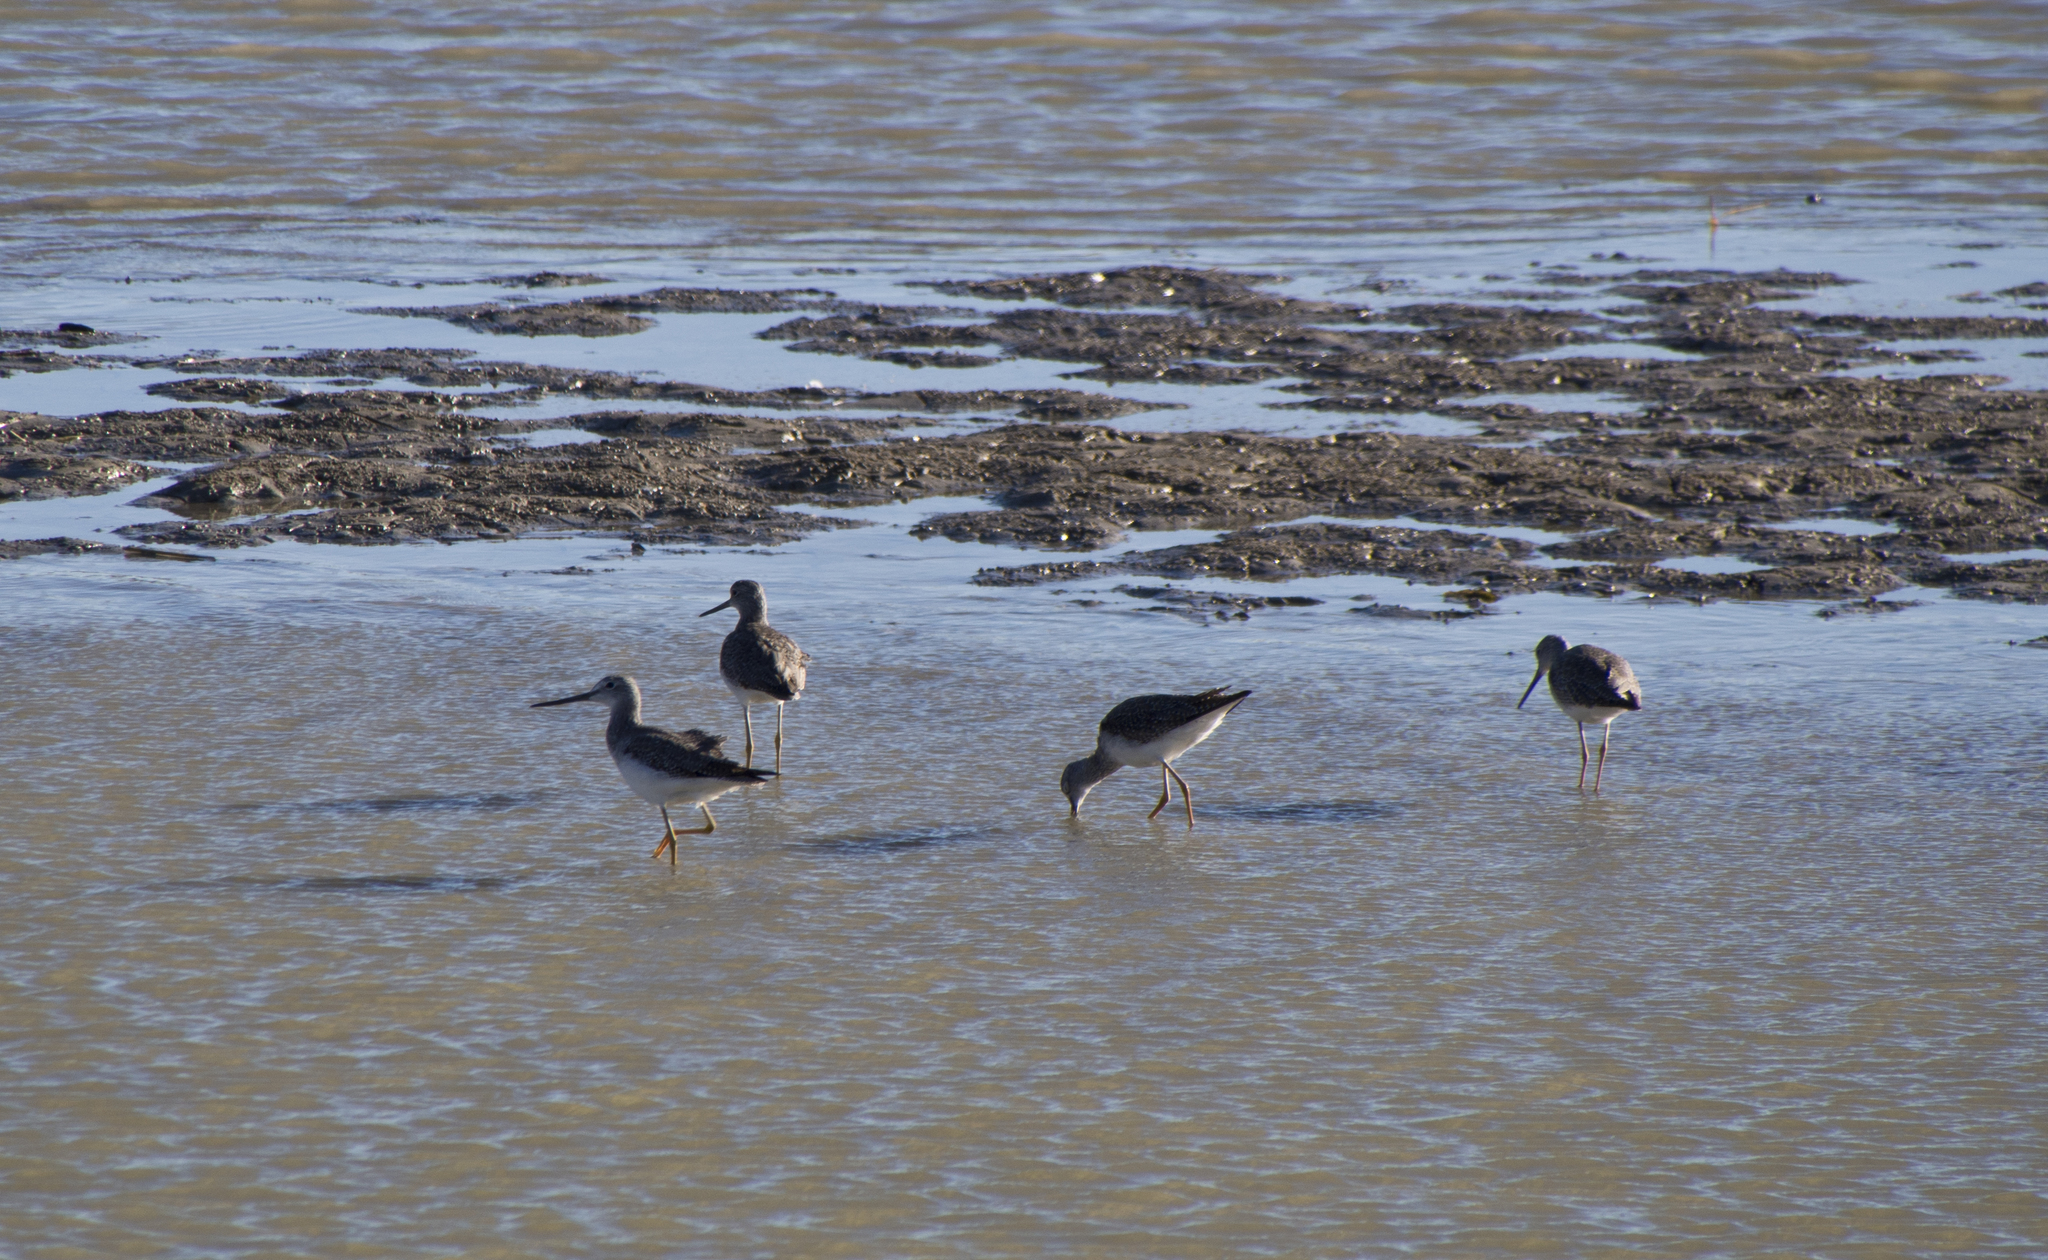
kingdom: Animalia
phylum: Chordata
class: Aves
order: Charadriiformes
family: Scolopacidae
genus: Tringa
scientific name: Tringa melanoleuca
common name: Greater yellowlegs
